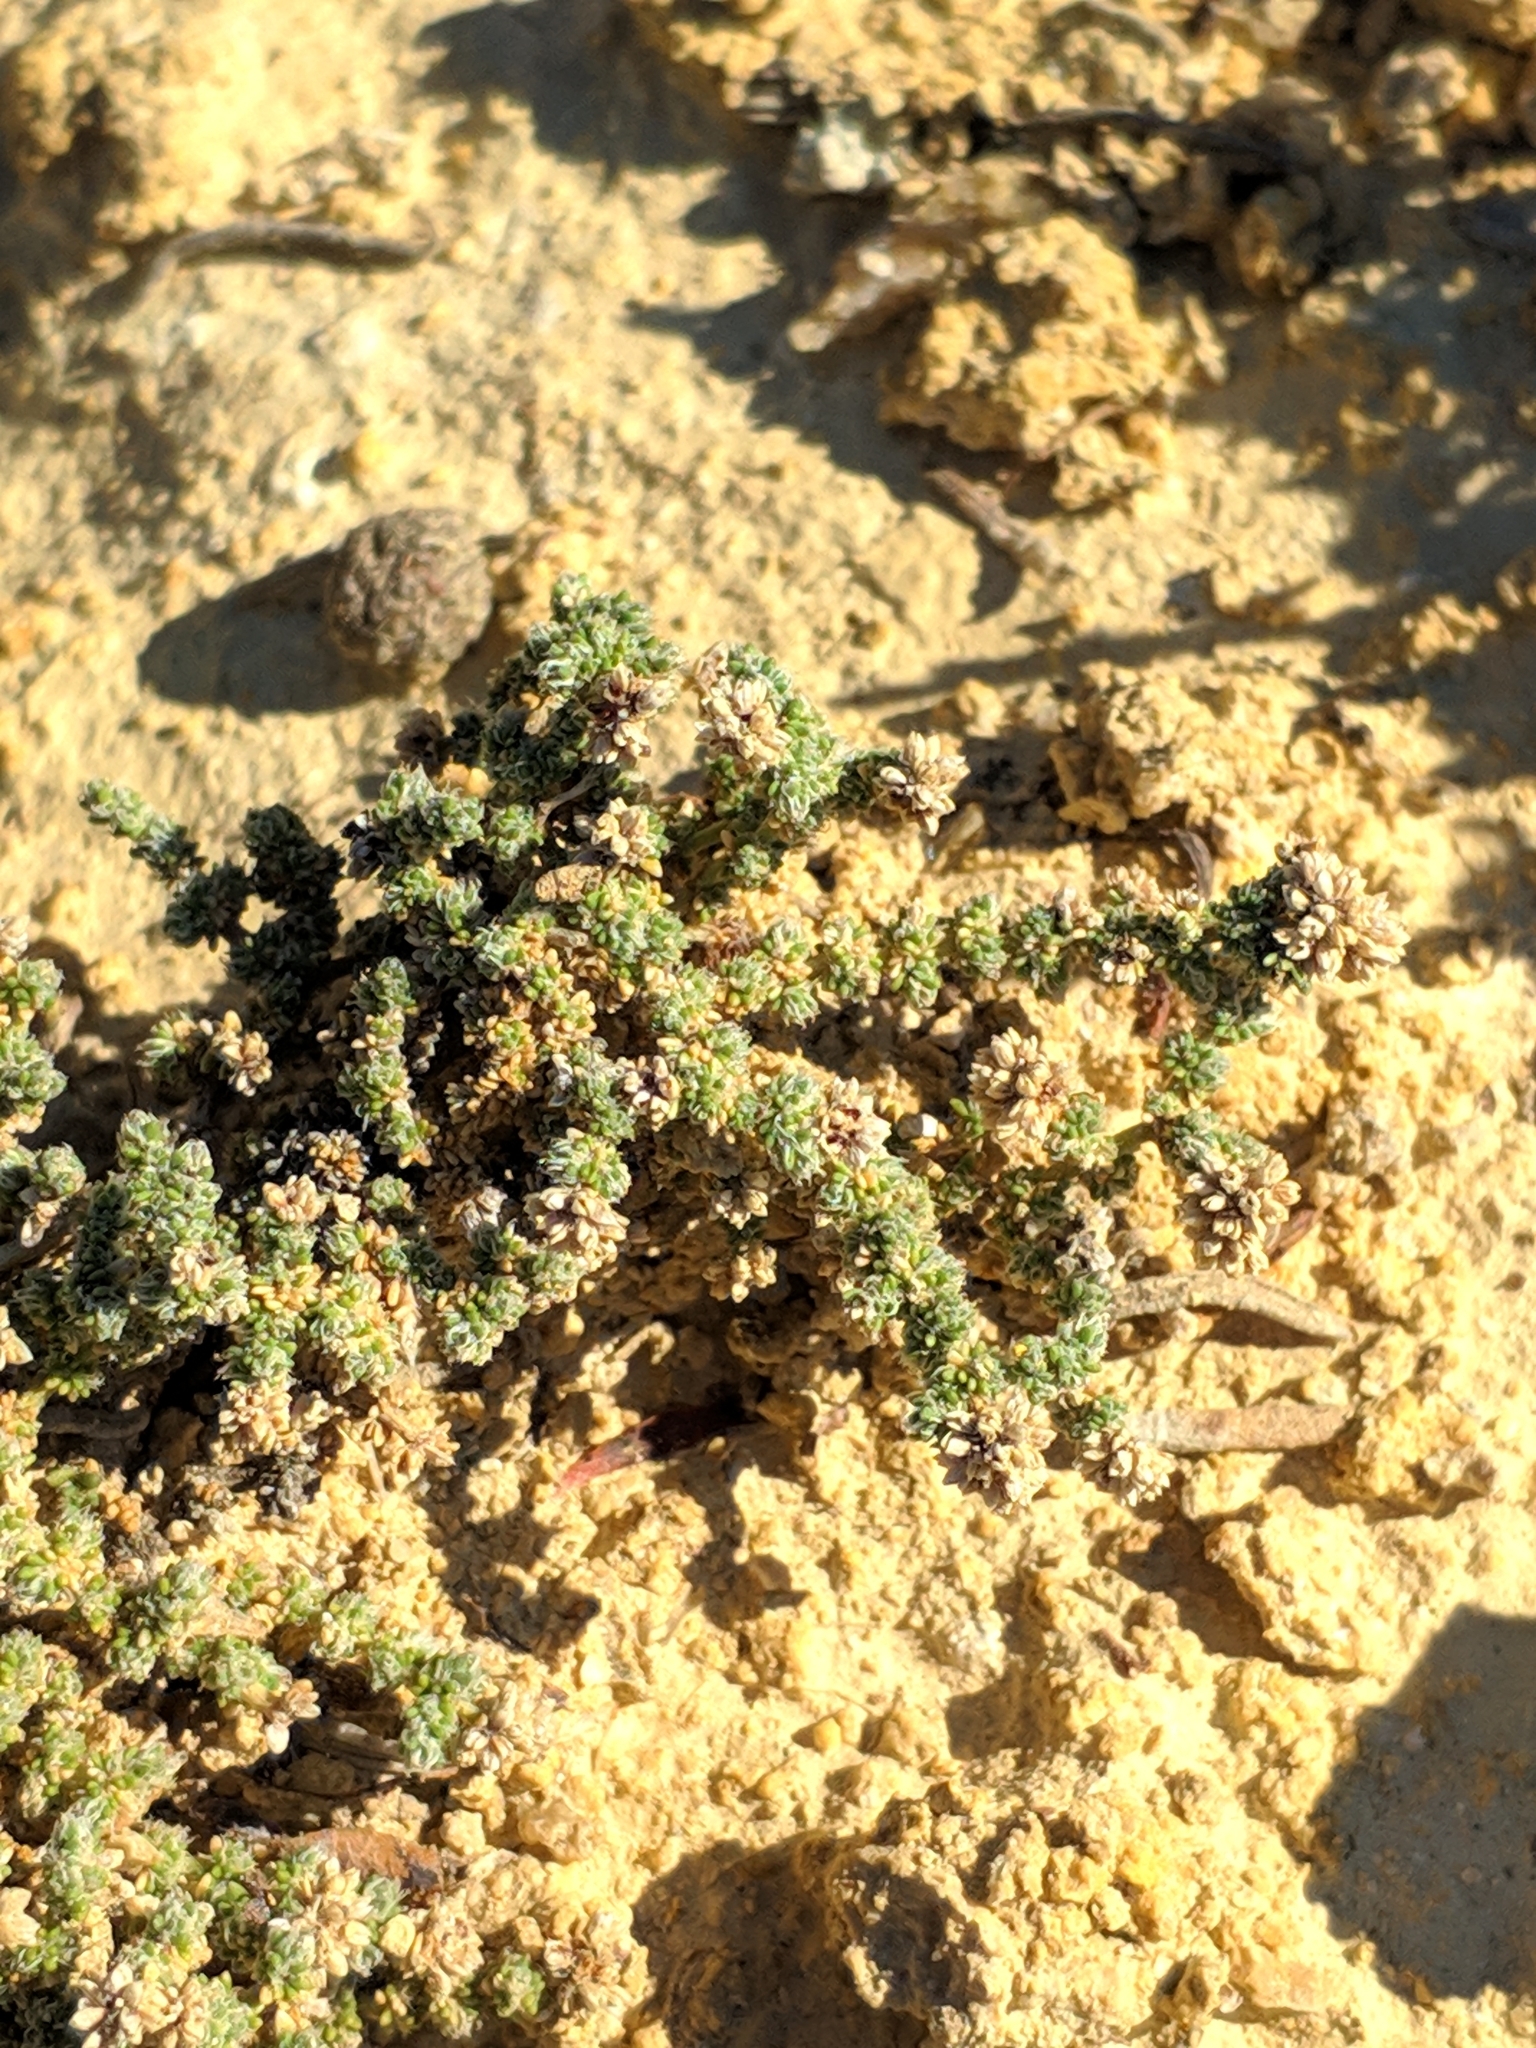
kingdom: Plantae
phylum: Tracheophyta
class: Magnoliopsida
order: Caryophyllales
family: Caryophyllaceae
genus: Herniaria
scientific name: Herniaria fruticosa
